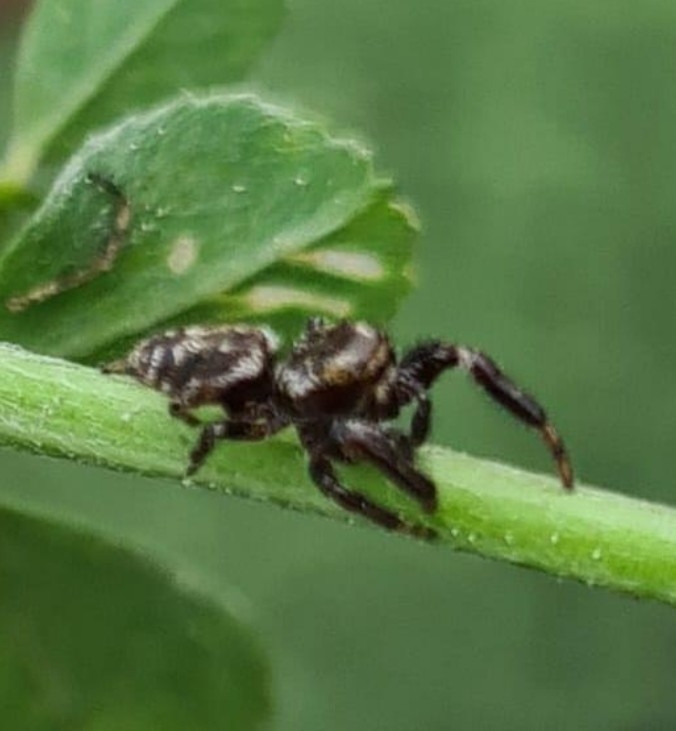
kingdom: Animalia
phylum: Arthropoda
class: Arachnida
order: Araneae
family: Salticidae
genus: Macaroeris
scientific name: Macaroeris nidicolens
